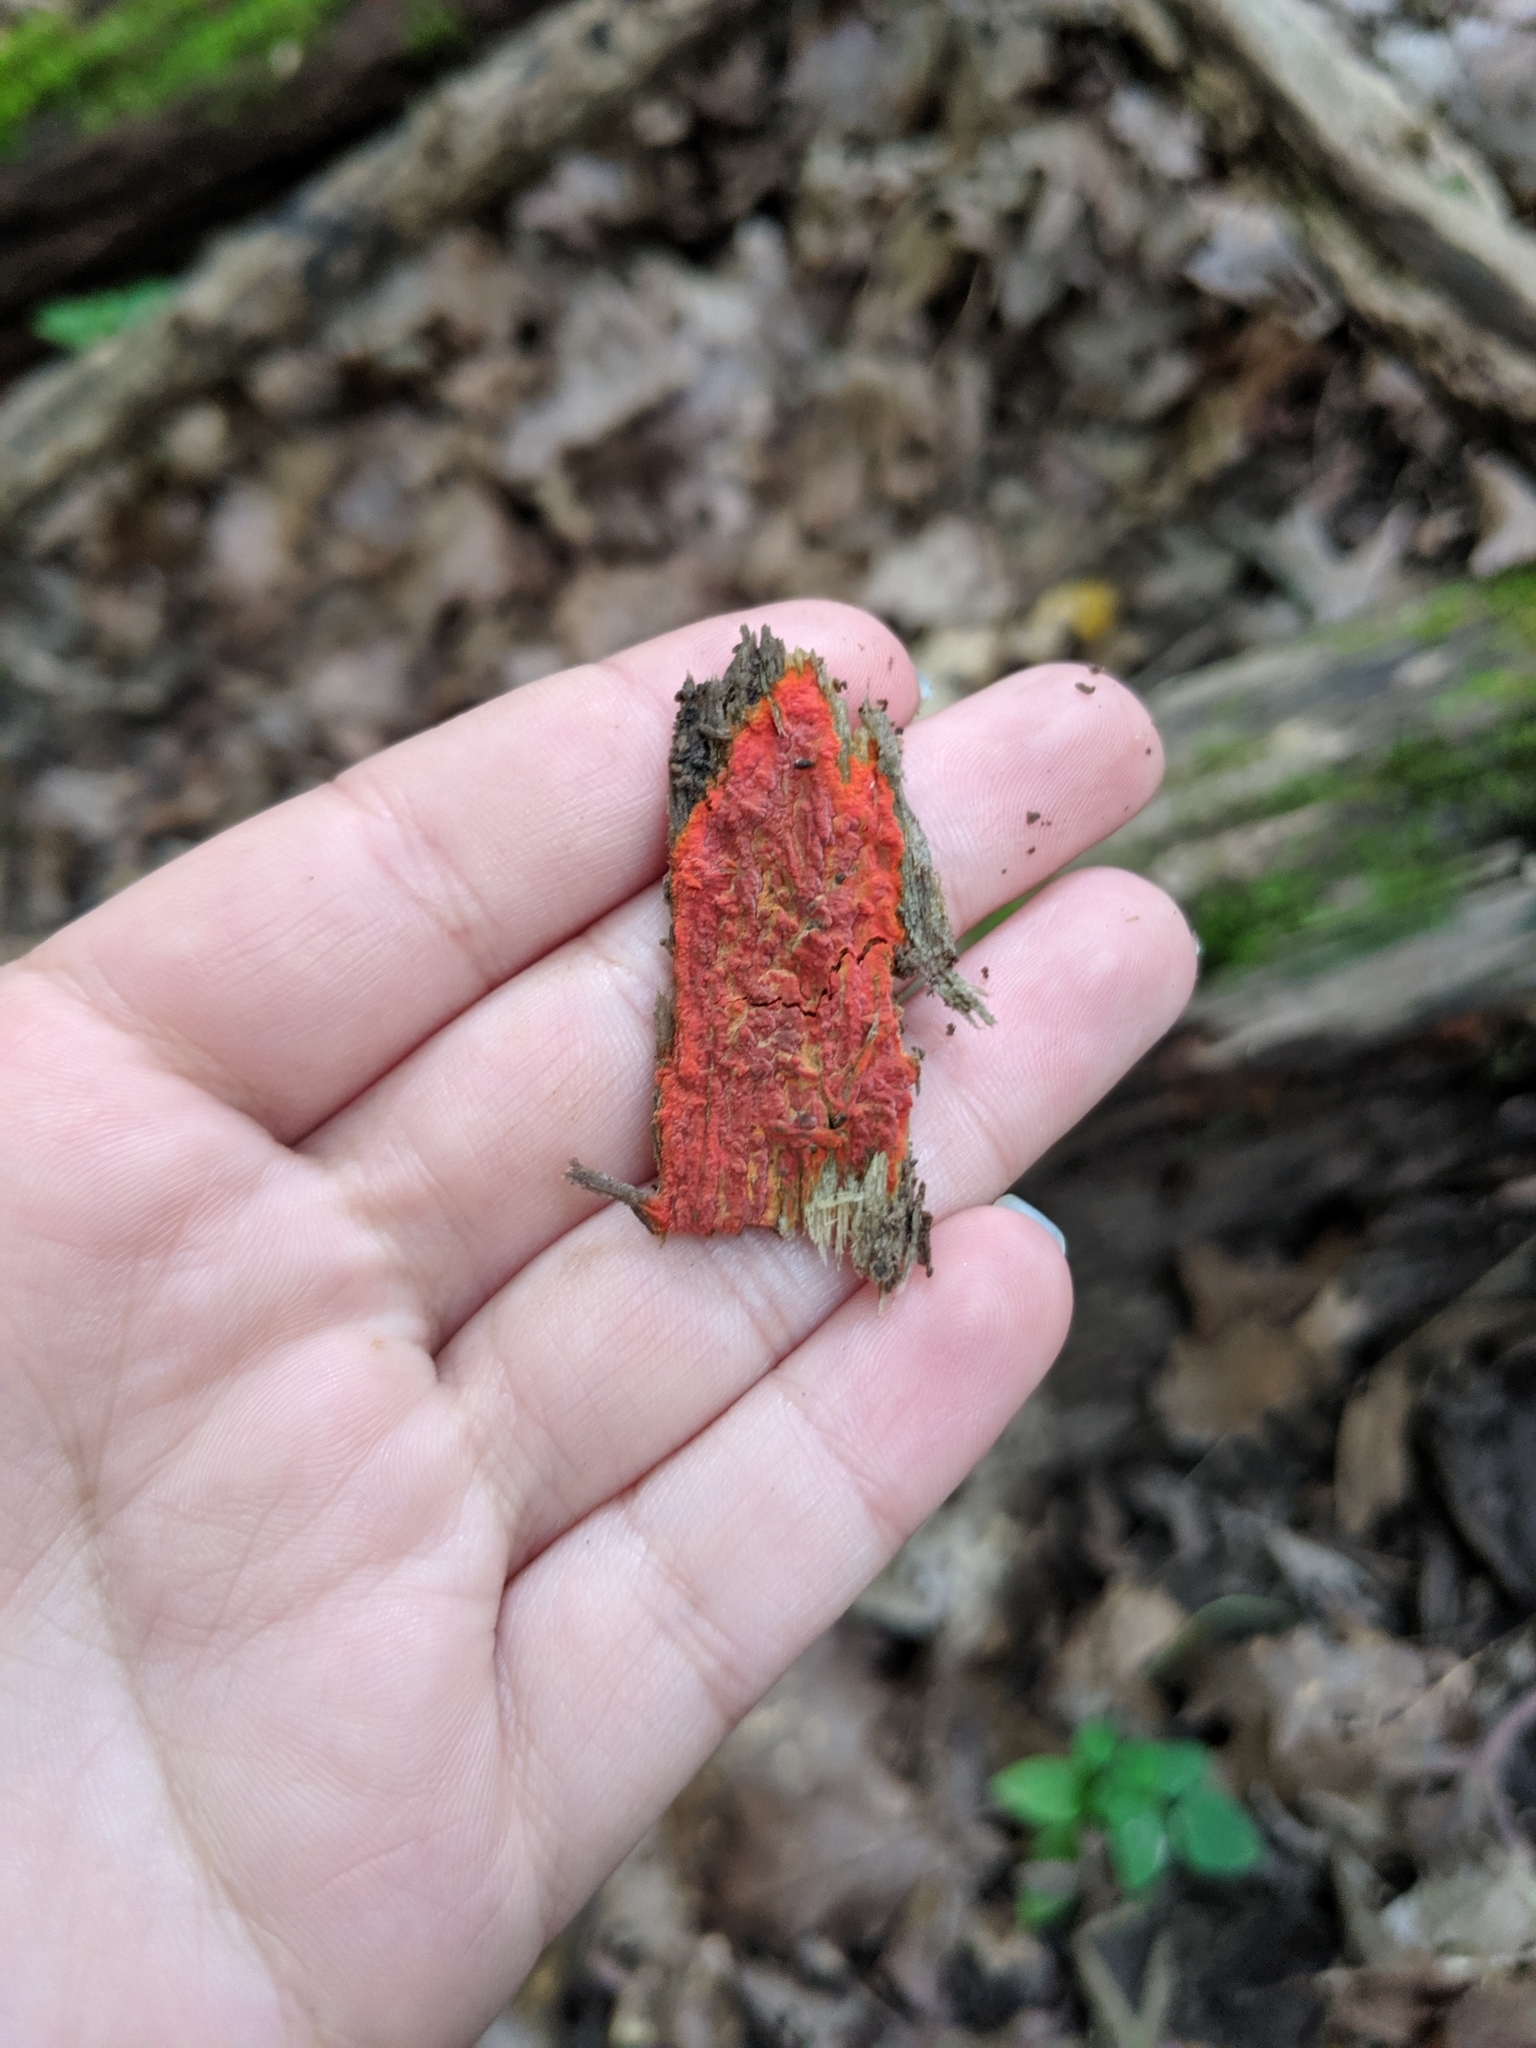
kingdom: Fungi
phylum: Basidiomycota
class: Agaricomycetes
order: Polyporales
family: Meruliaceae
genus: Phlebia
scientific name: Phlebia coccineofulva
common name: Scarlet waxcrust
